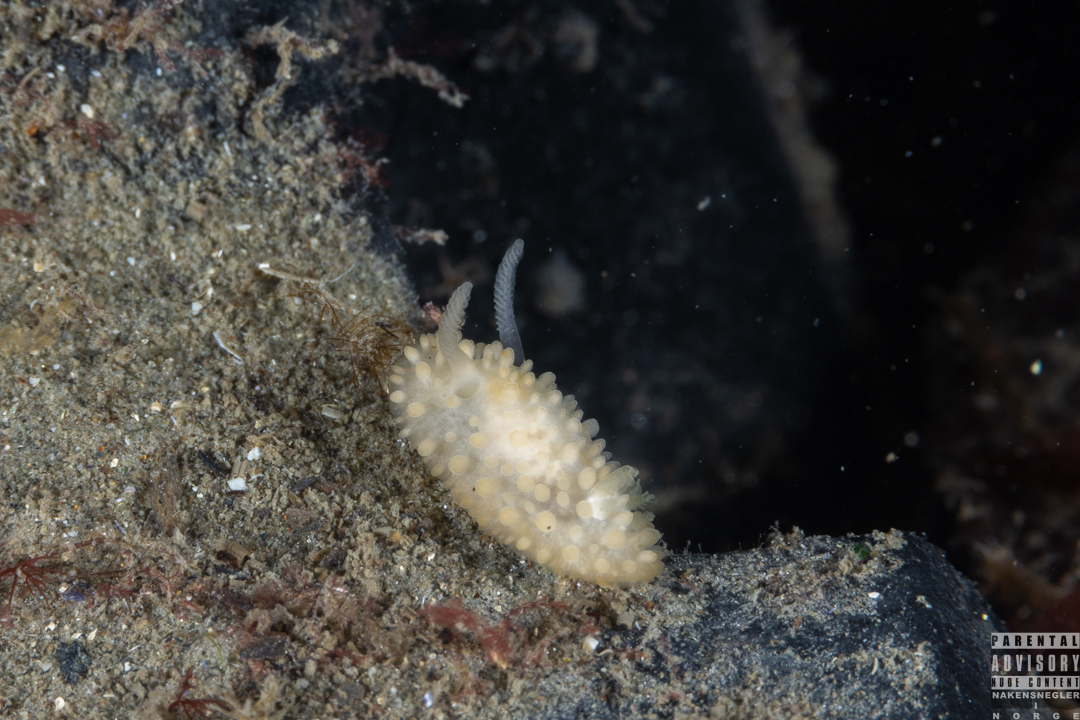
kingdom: Animalia
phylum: Mollusca
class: Gastropoda
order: Nudibranchia
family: Onchidorididae
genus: Adalaria
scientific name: Adalaria proxima
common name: False doris
